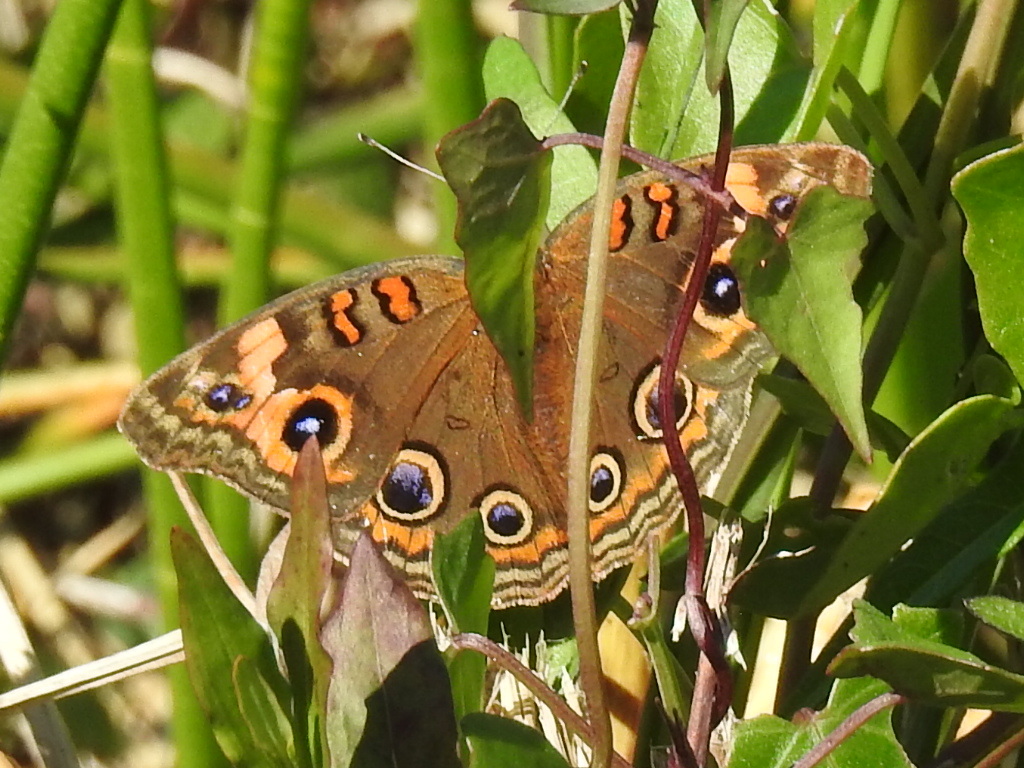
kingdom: Animalia
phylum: Arthropoda
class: Insecta
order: Lepidoptera
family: Nymphalidae
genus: Junonia
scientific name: Junonia neildi
